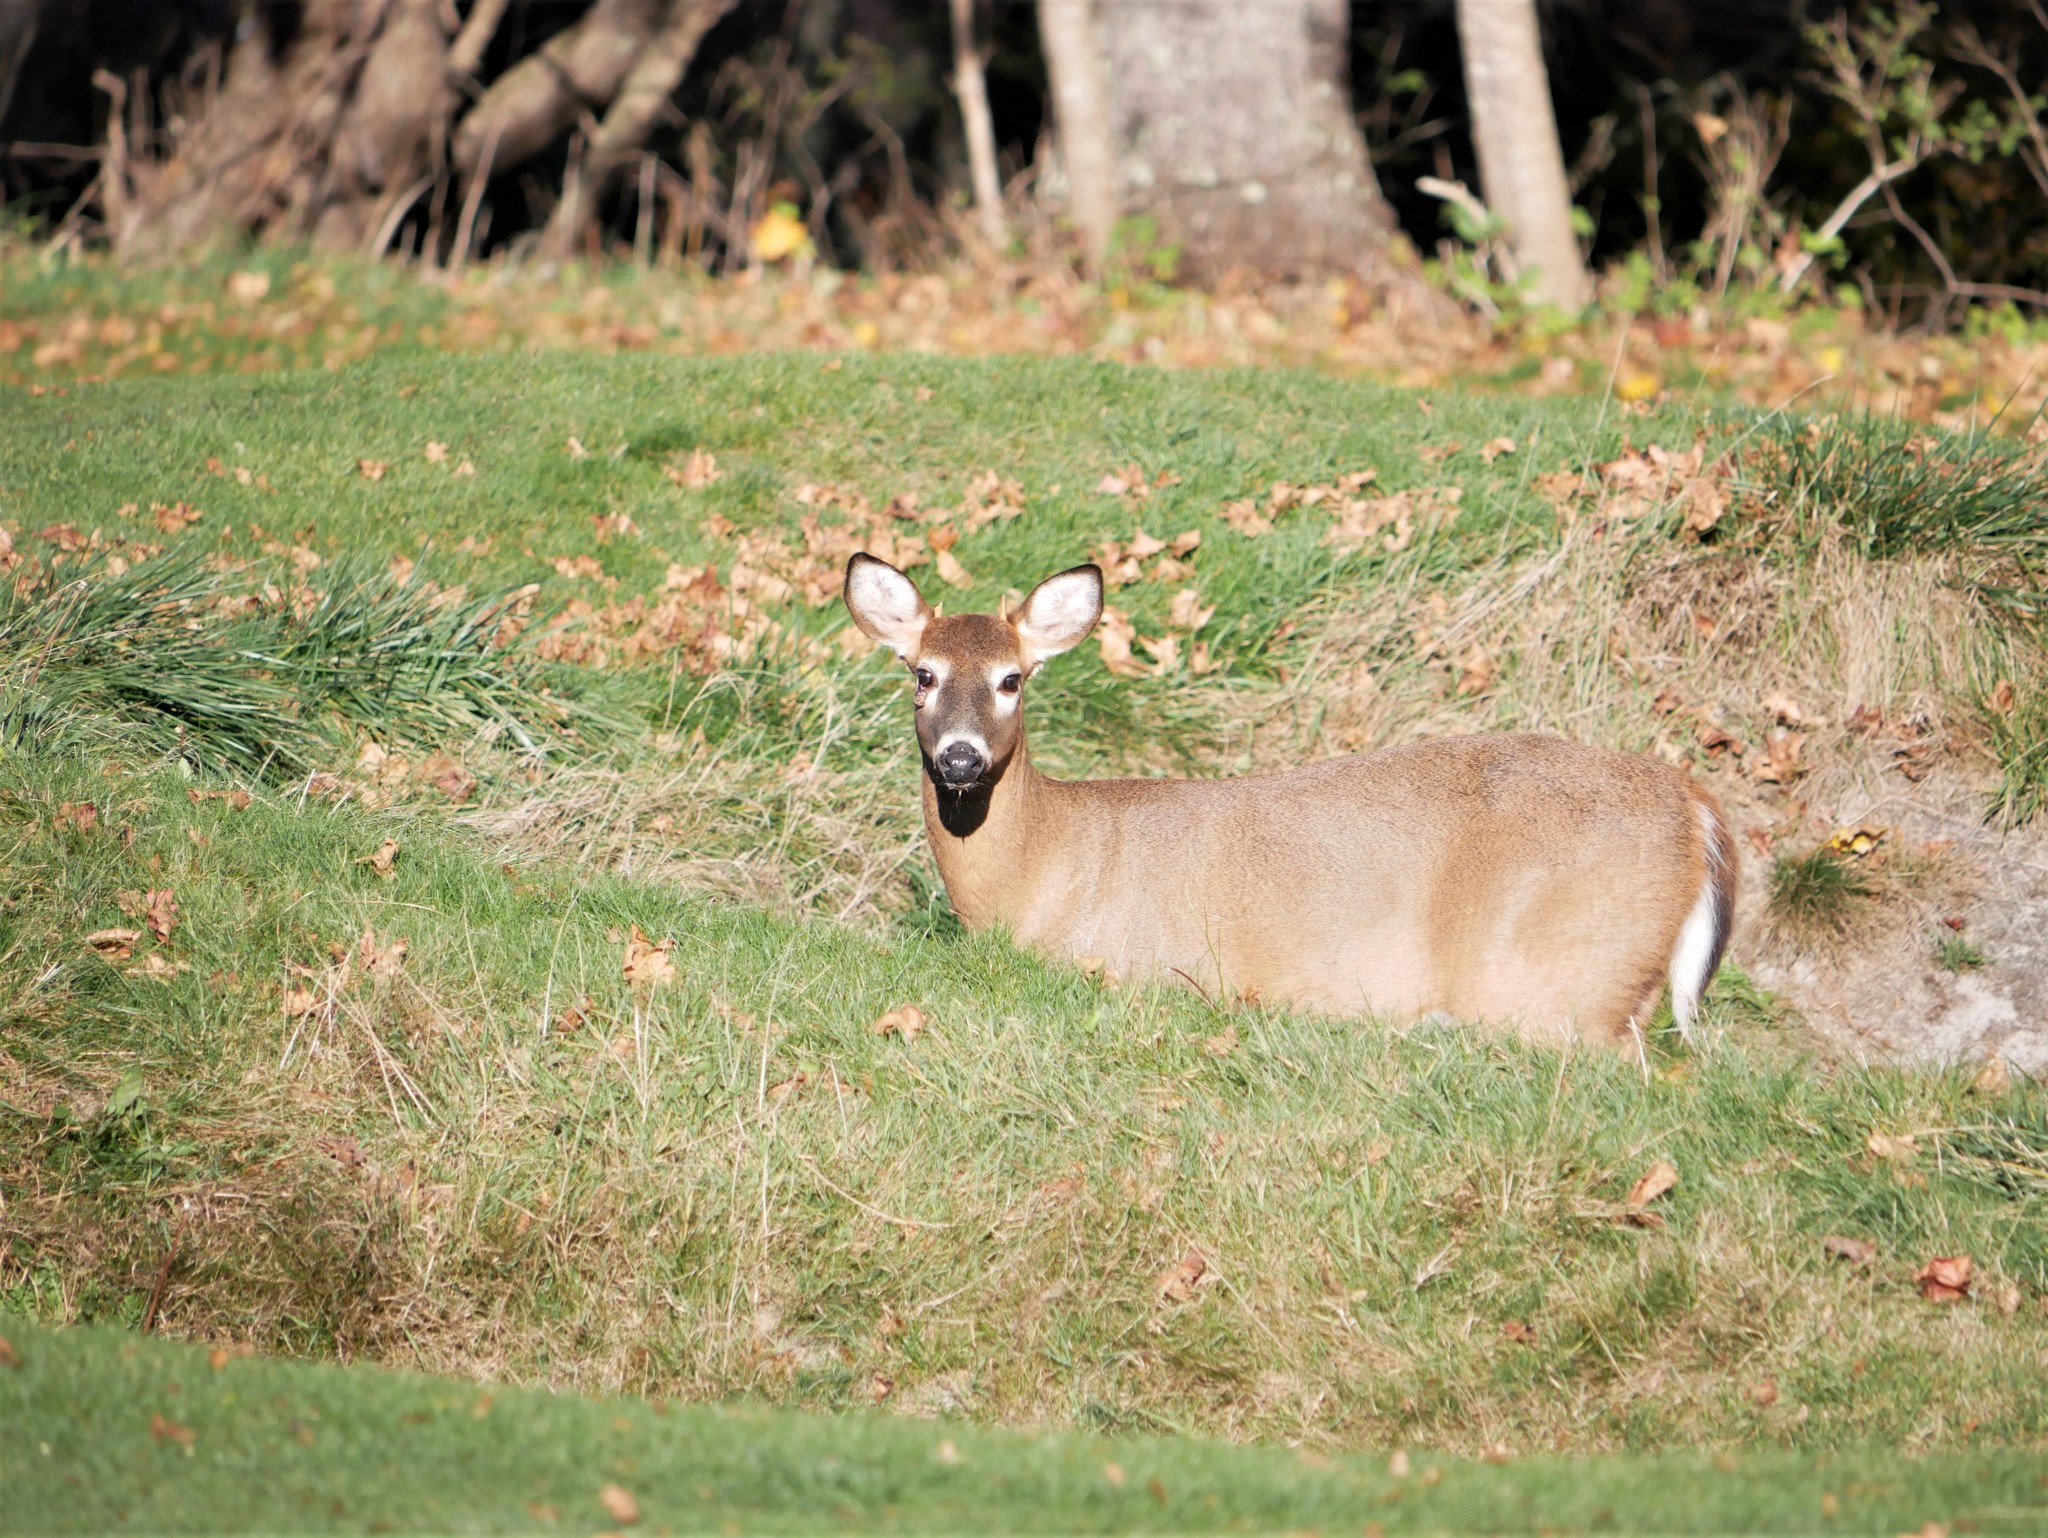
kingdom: Animalia
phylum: Chordata
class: Mammalia
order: Artiodactyla
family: Cervidae
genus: Odocoileus
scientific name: Odocoileus virginianus
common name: White-tailed deer
